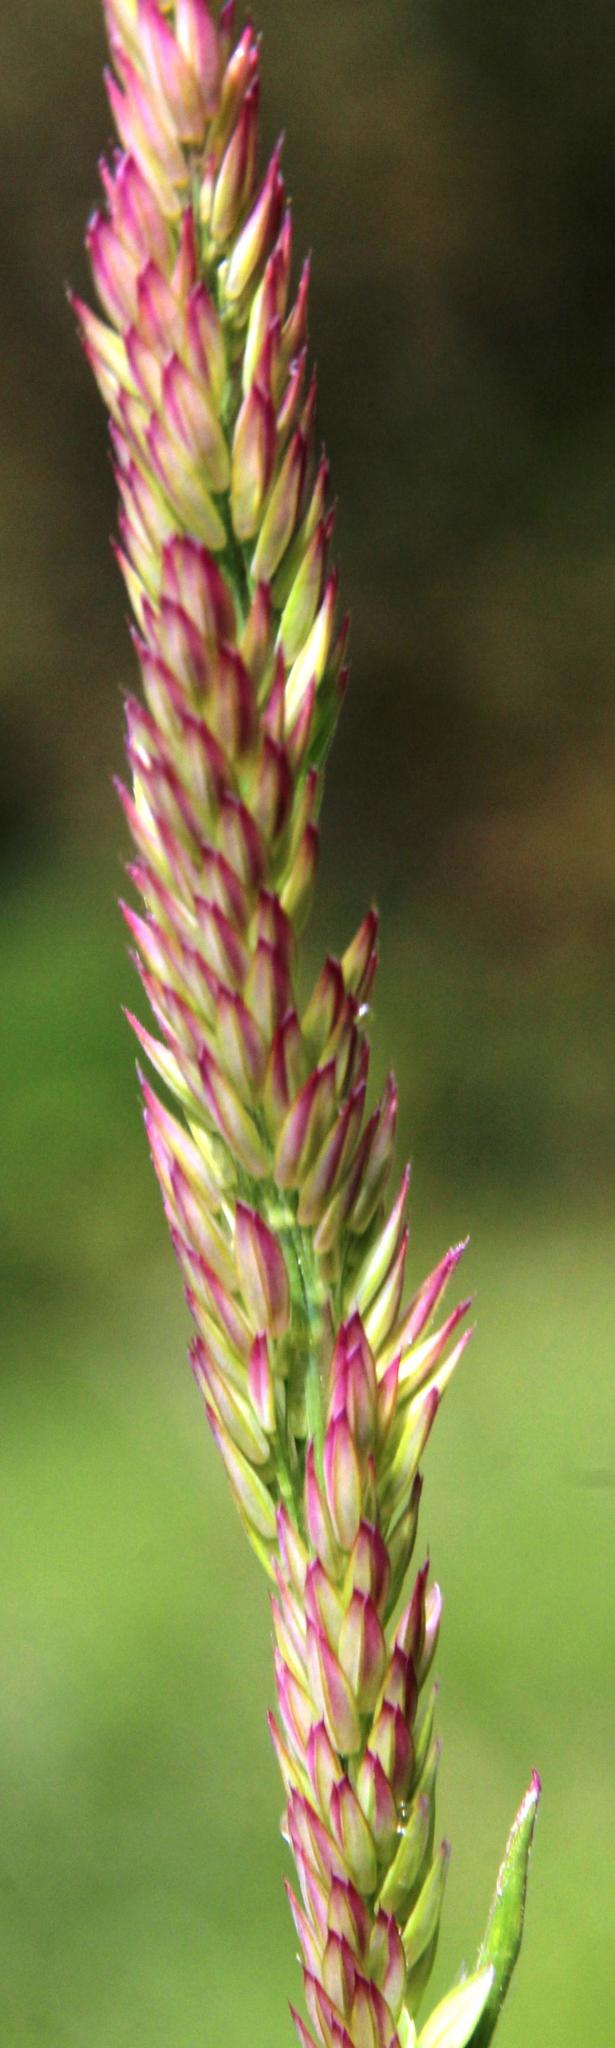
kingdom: Plantae
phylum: Tracheophyta
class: Liliopsida
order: Poales
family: Poaceae
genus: Holcus
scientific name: Holcus lanatus
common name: Yorkshire-fog
